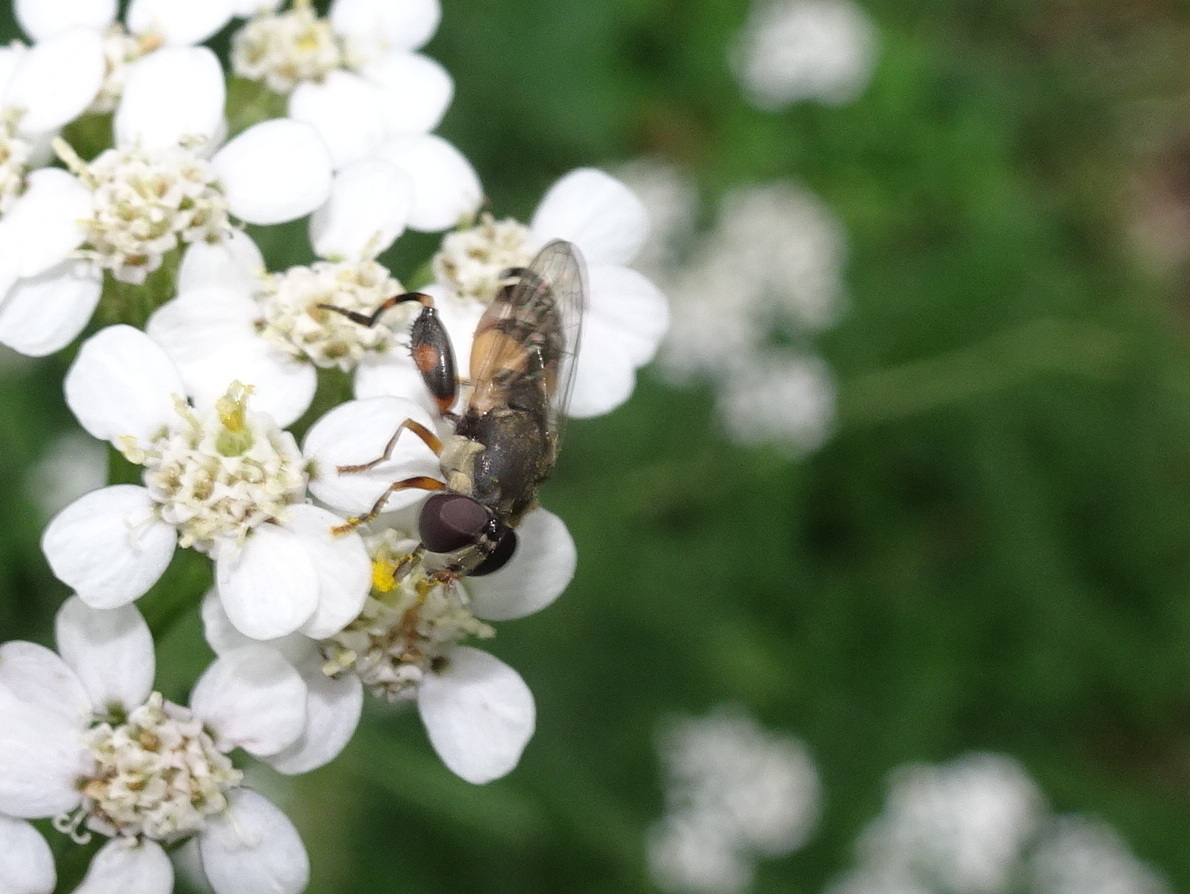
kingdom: Animalia
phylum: Arthropoda
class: Insecta
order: Diptera
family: Syrphidae
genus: Syritta
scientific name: Syritta pipiens
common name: Hover fly
